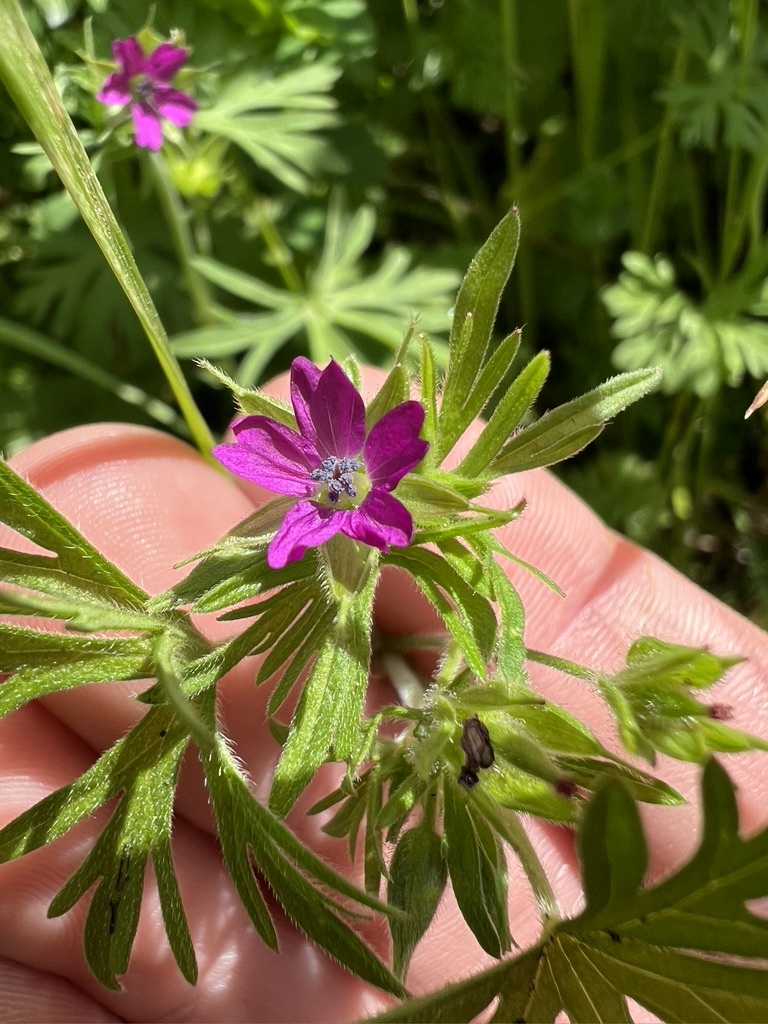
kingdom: Plantae
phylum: Tracheophyta
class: Magnoliopsida
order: Geraniales
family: Geraniaceae
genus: Geranium
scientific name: Geranium dissectum
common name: Cut-leaved crane's-bill
